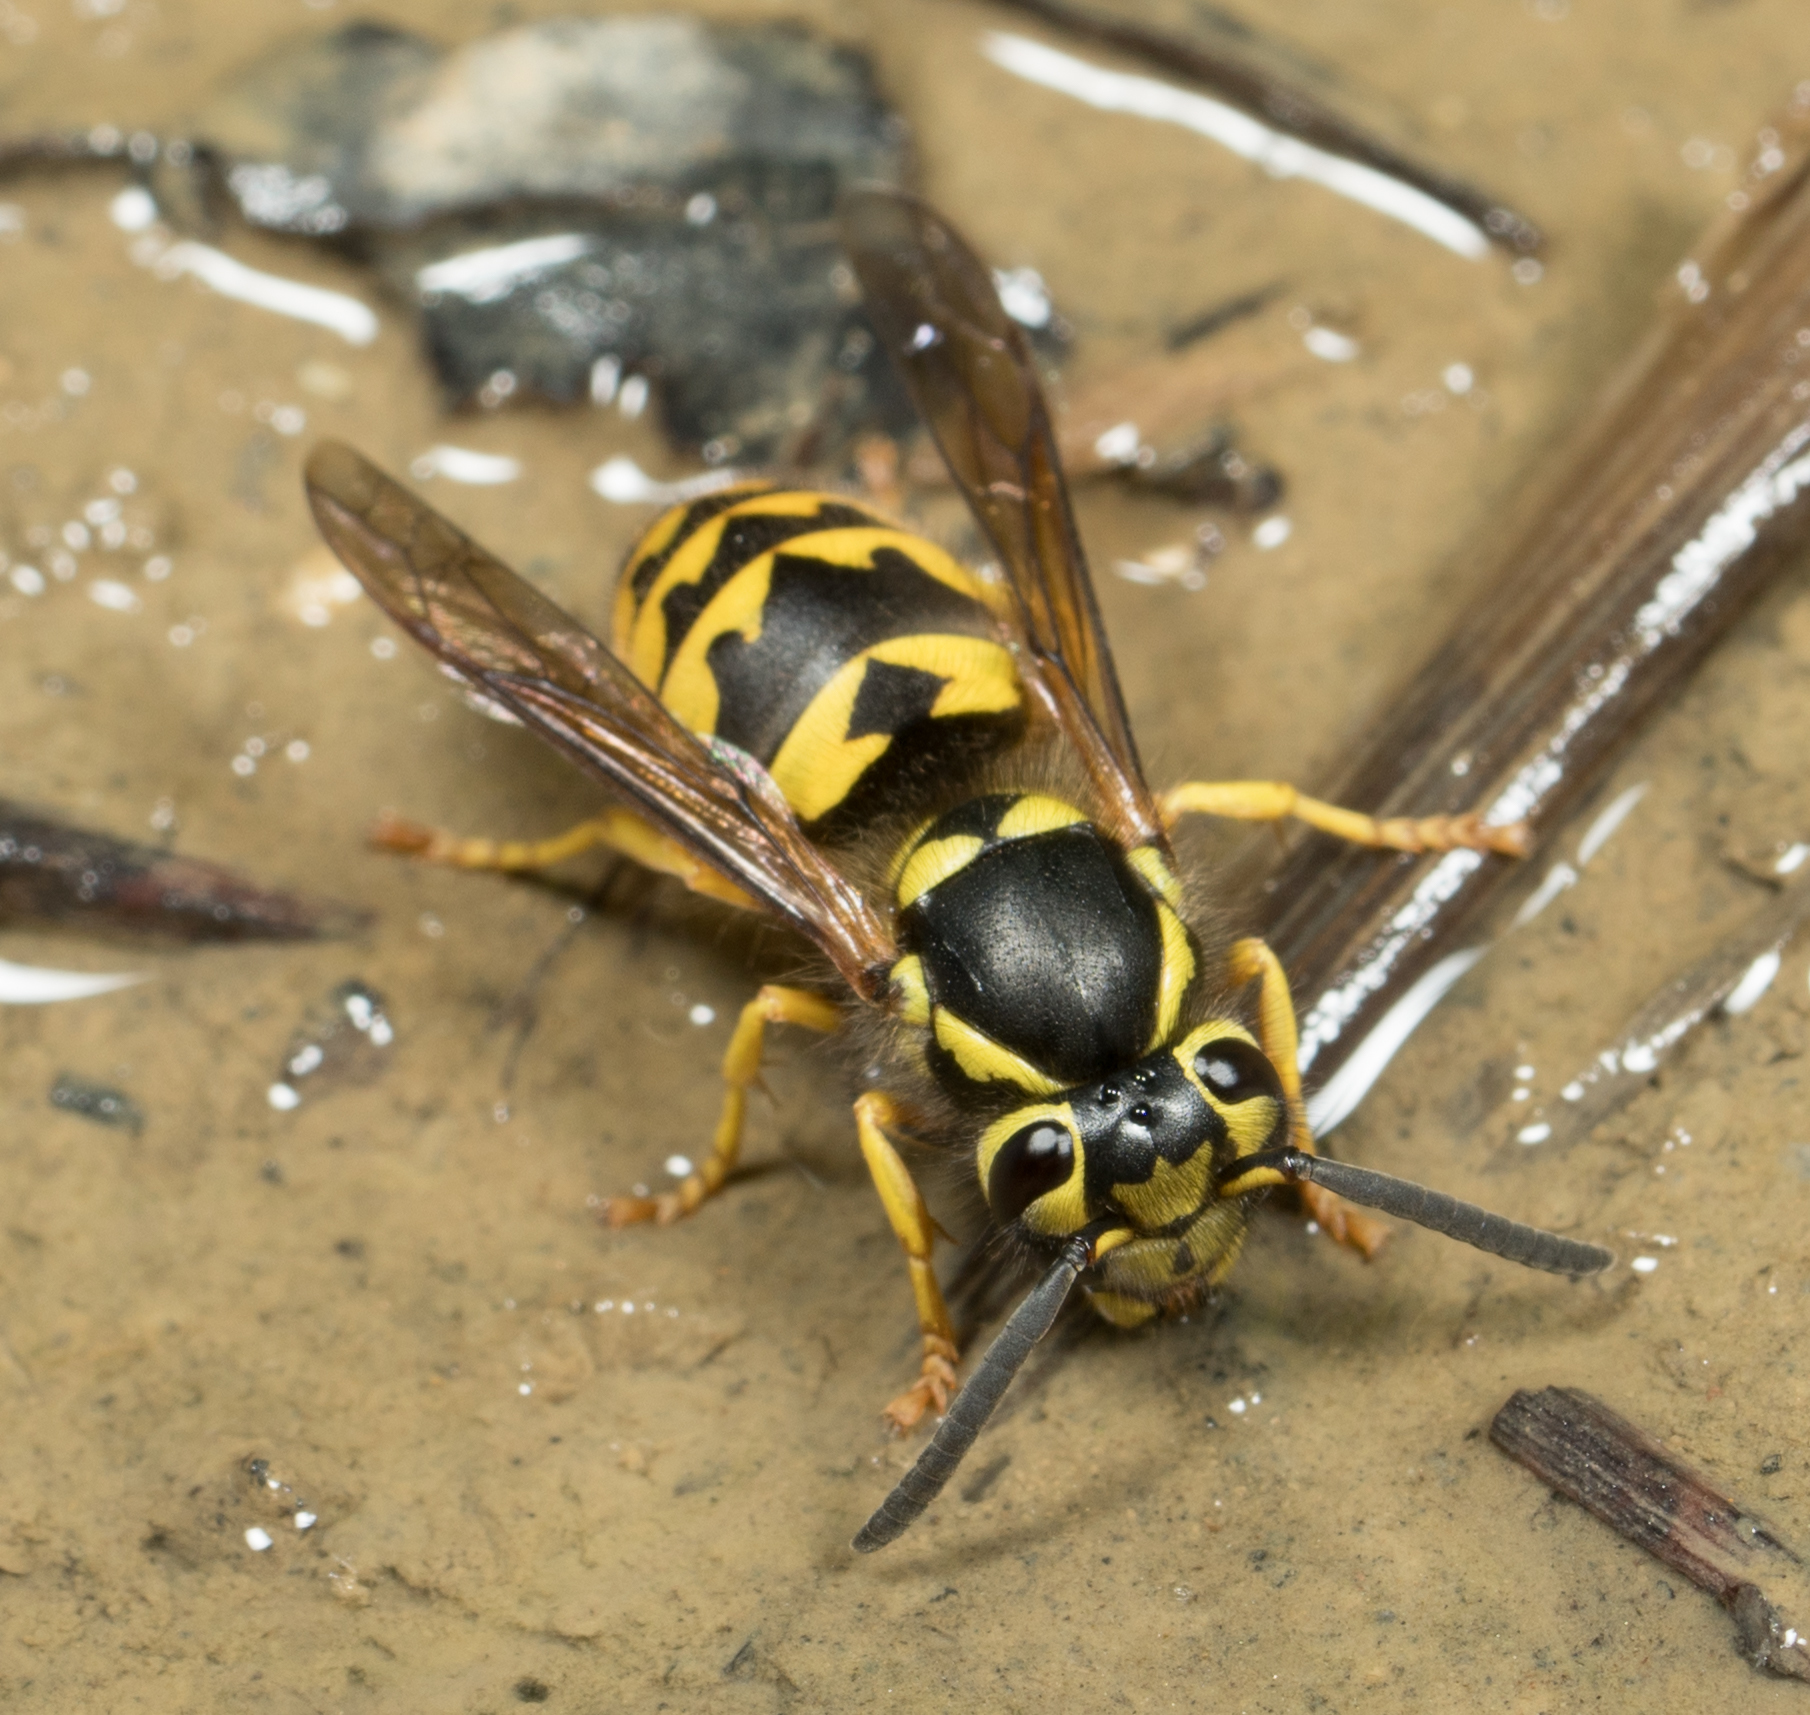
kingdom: Animalia
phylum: Arthropoda
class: Insecta
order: Hymenoptera
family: Vespidae
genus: Vespula
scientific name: Vespula pensylvanica
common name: Western yellowjacket
